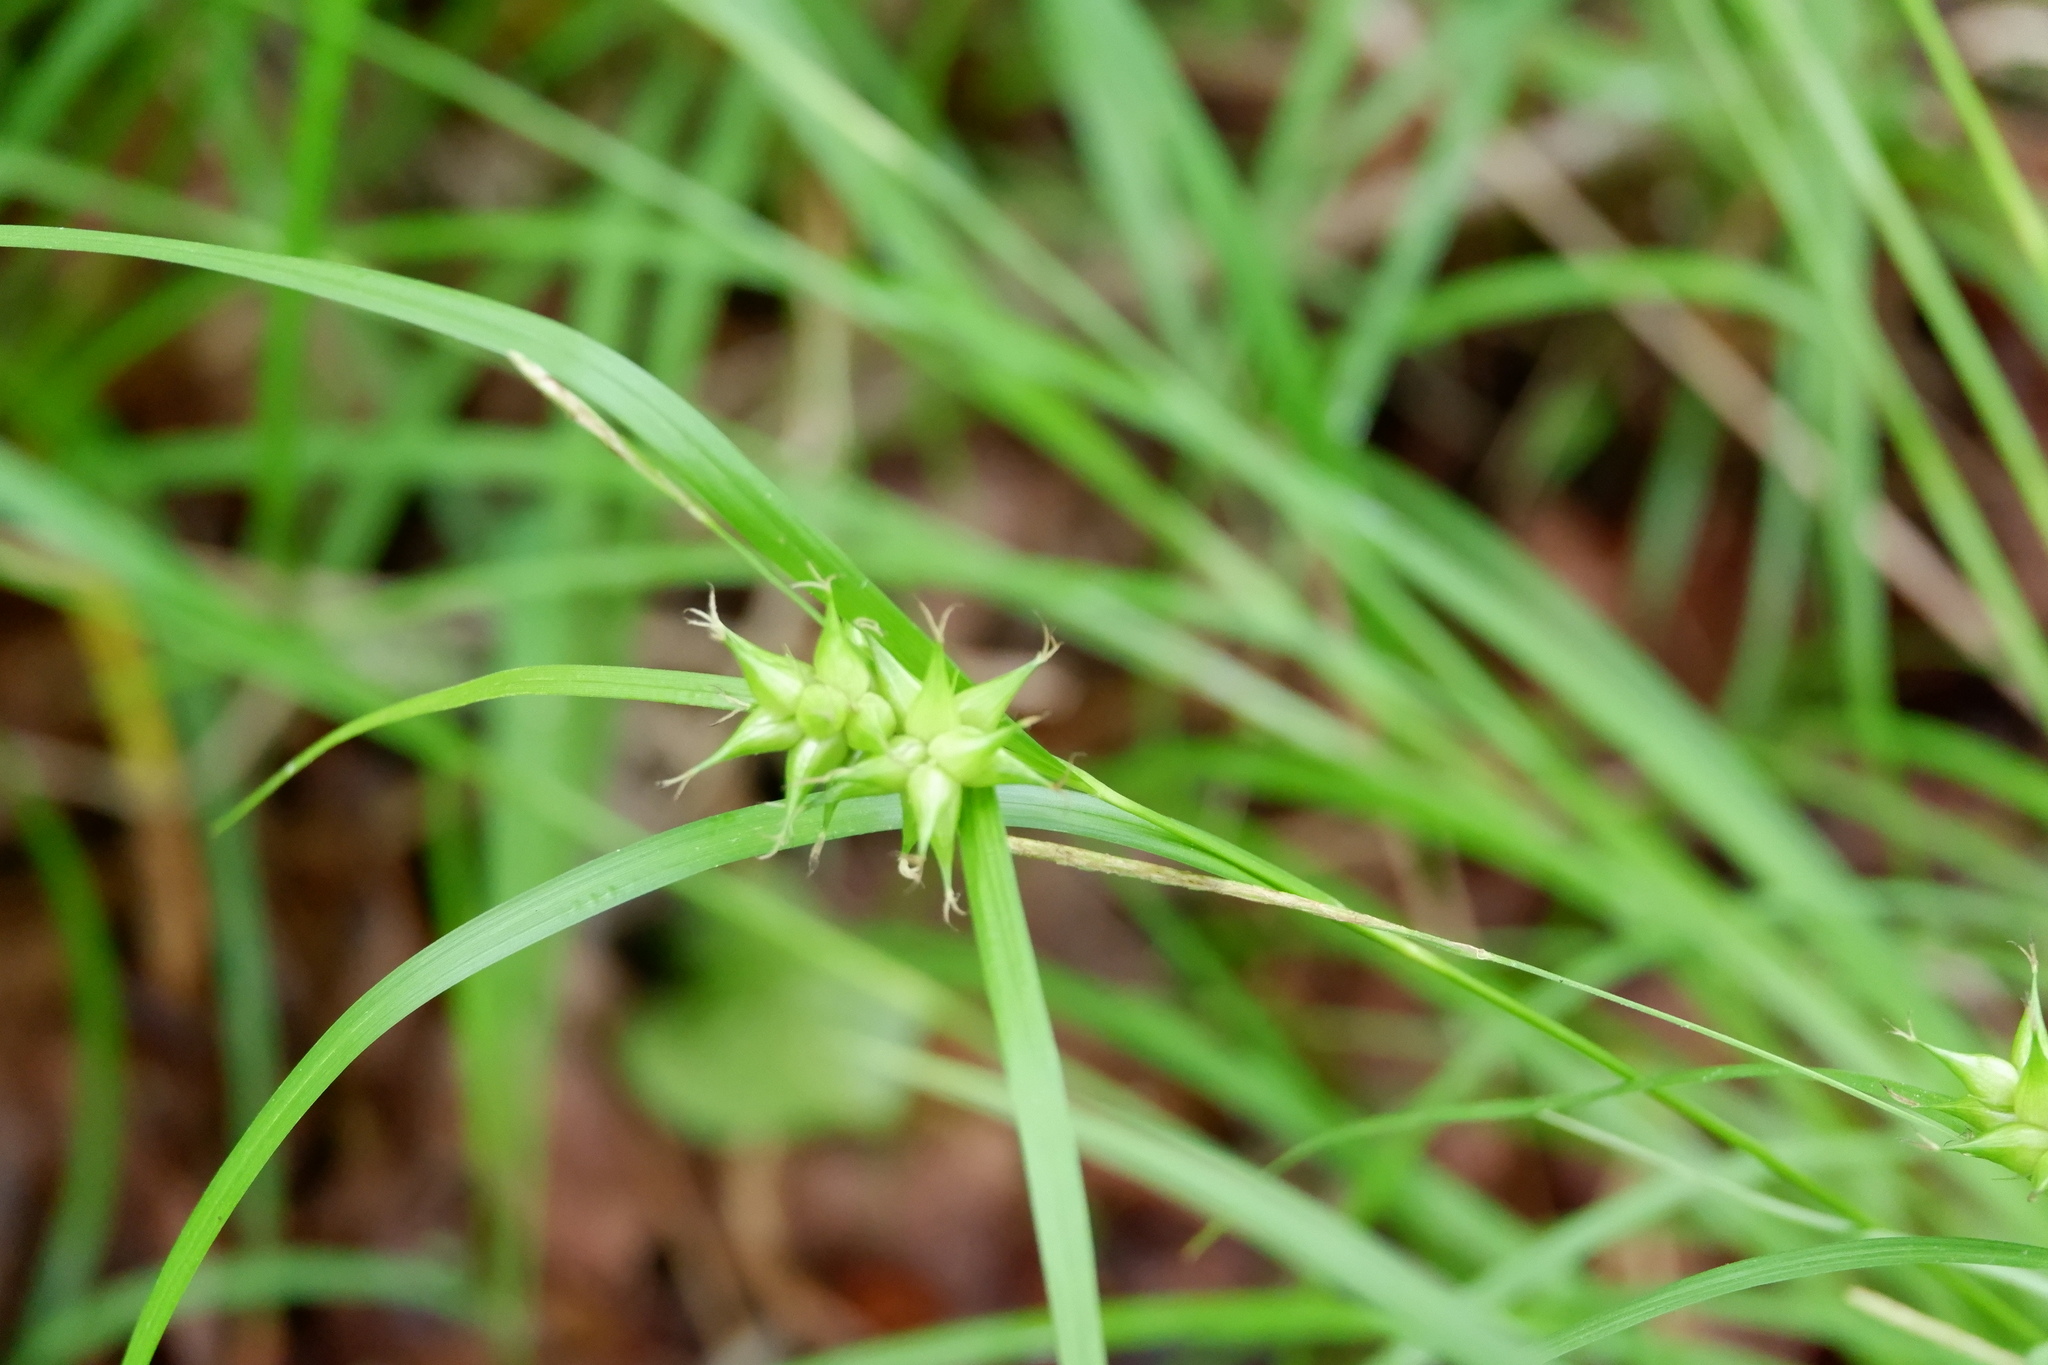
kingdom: Plantae
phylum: Tracheophyta
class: Liliopsida
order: Poales
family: Cyperaceae
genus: Carex
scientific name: Carex intumescens
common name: Greater bladder sedge
